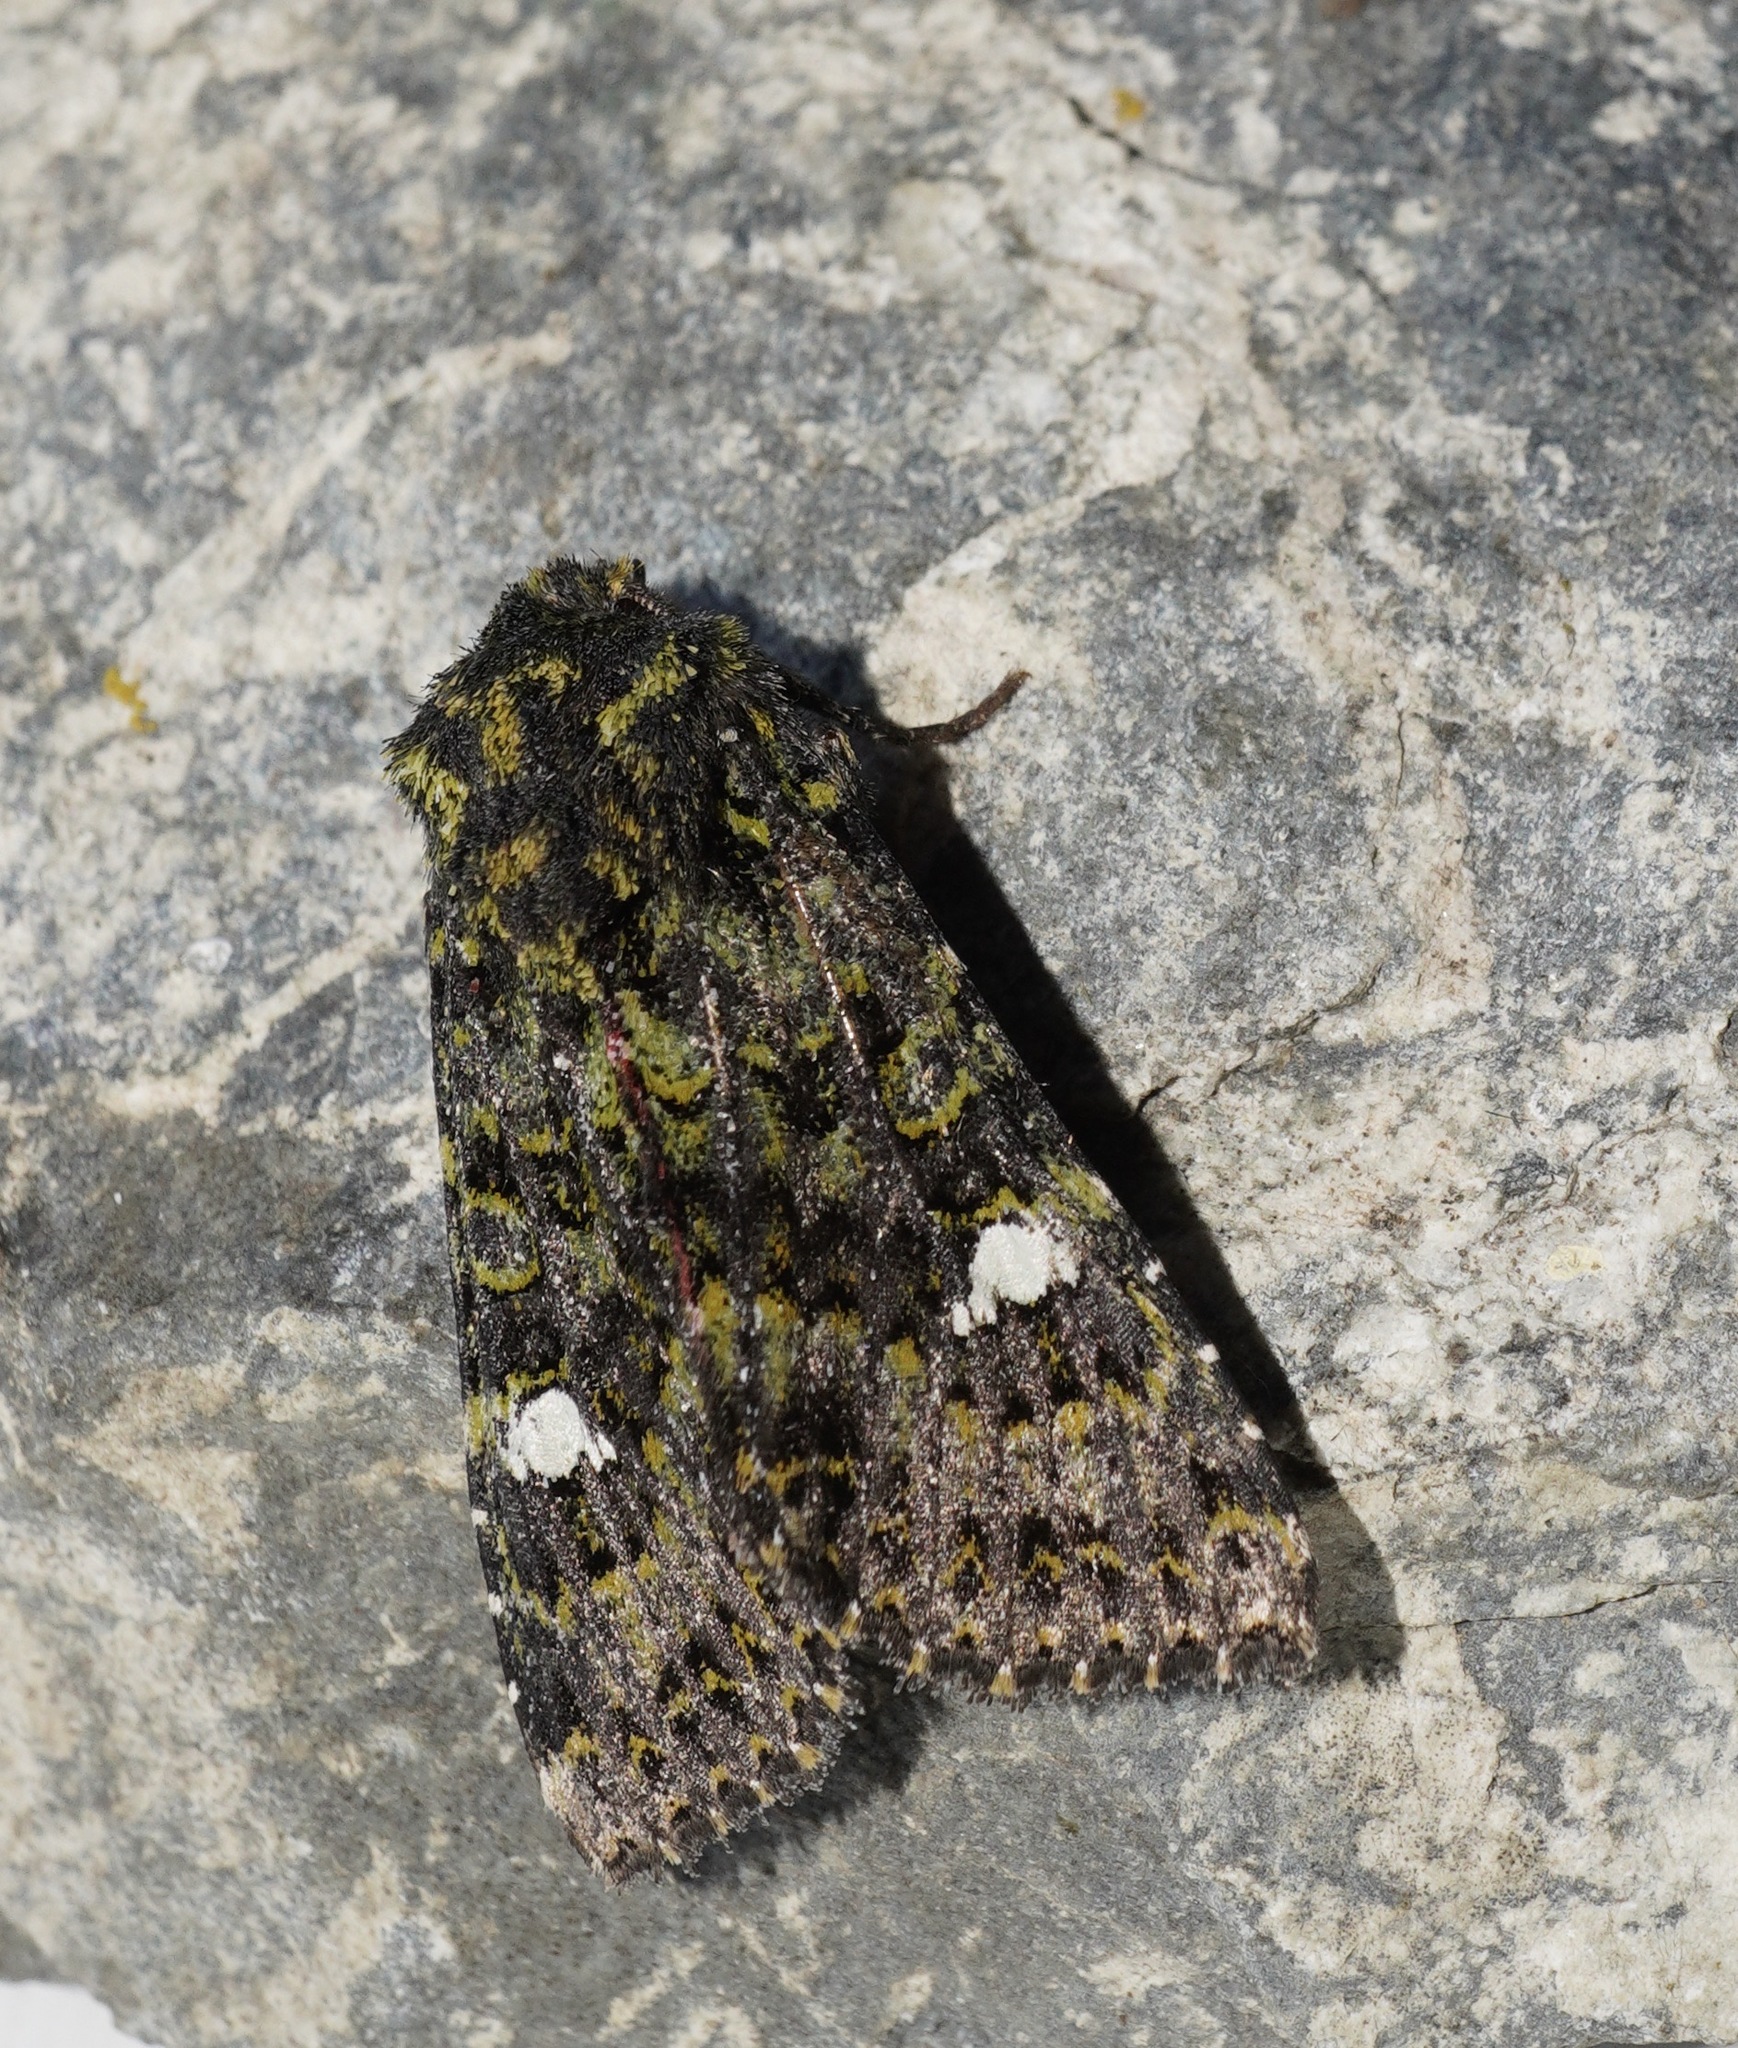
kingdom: Animalia
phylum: Arthropoda
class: Insecta
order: Lepidoptera
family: Noctuidae
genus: Meterana
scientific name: Meterana meyricci
